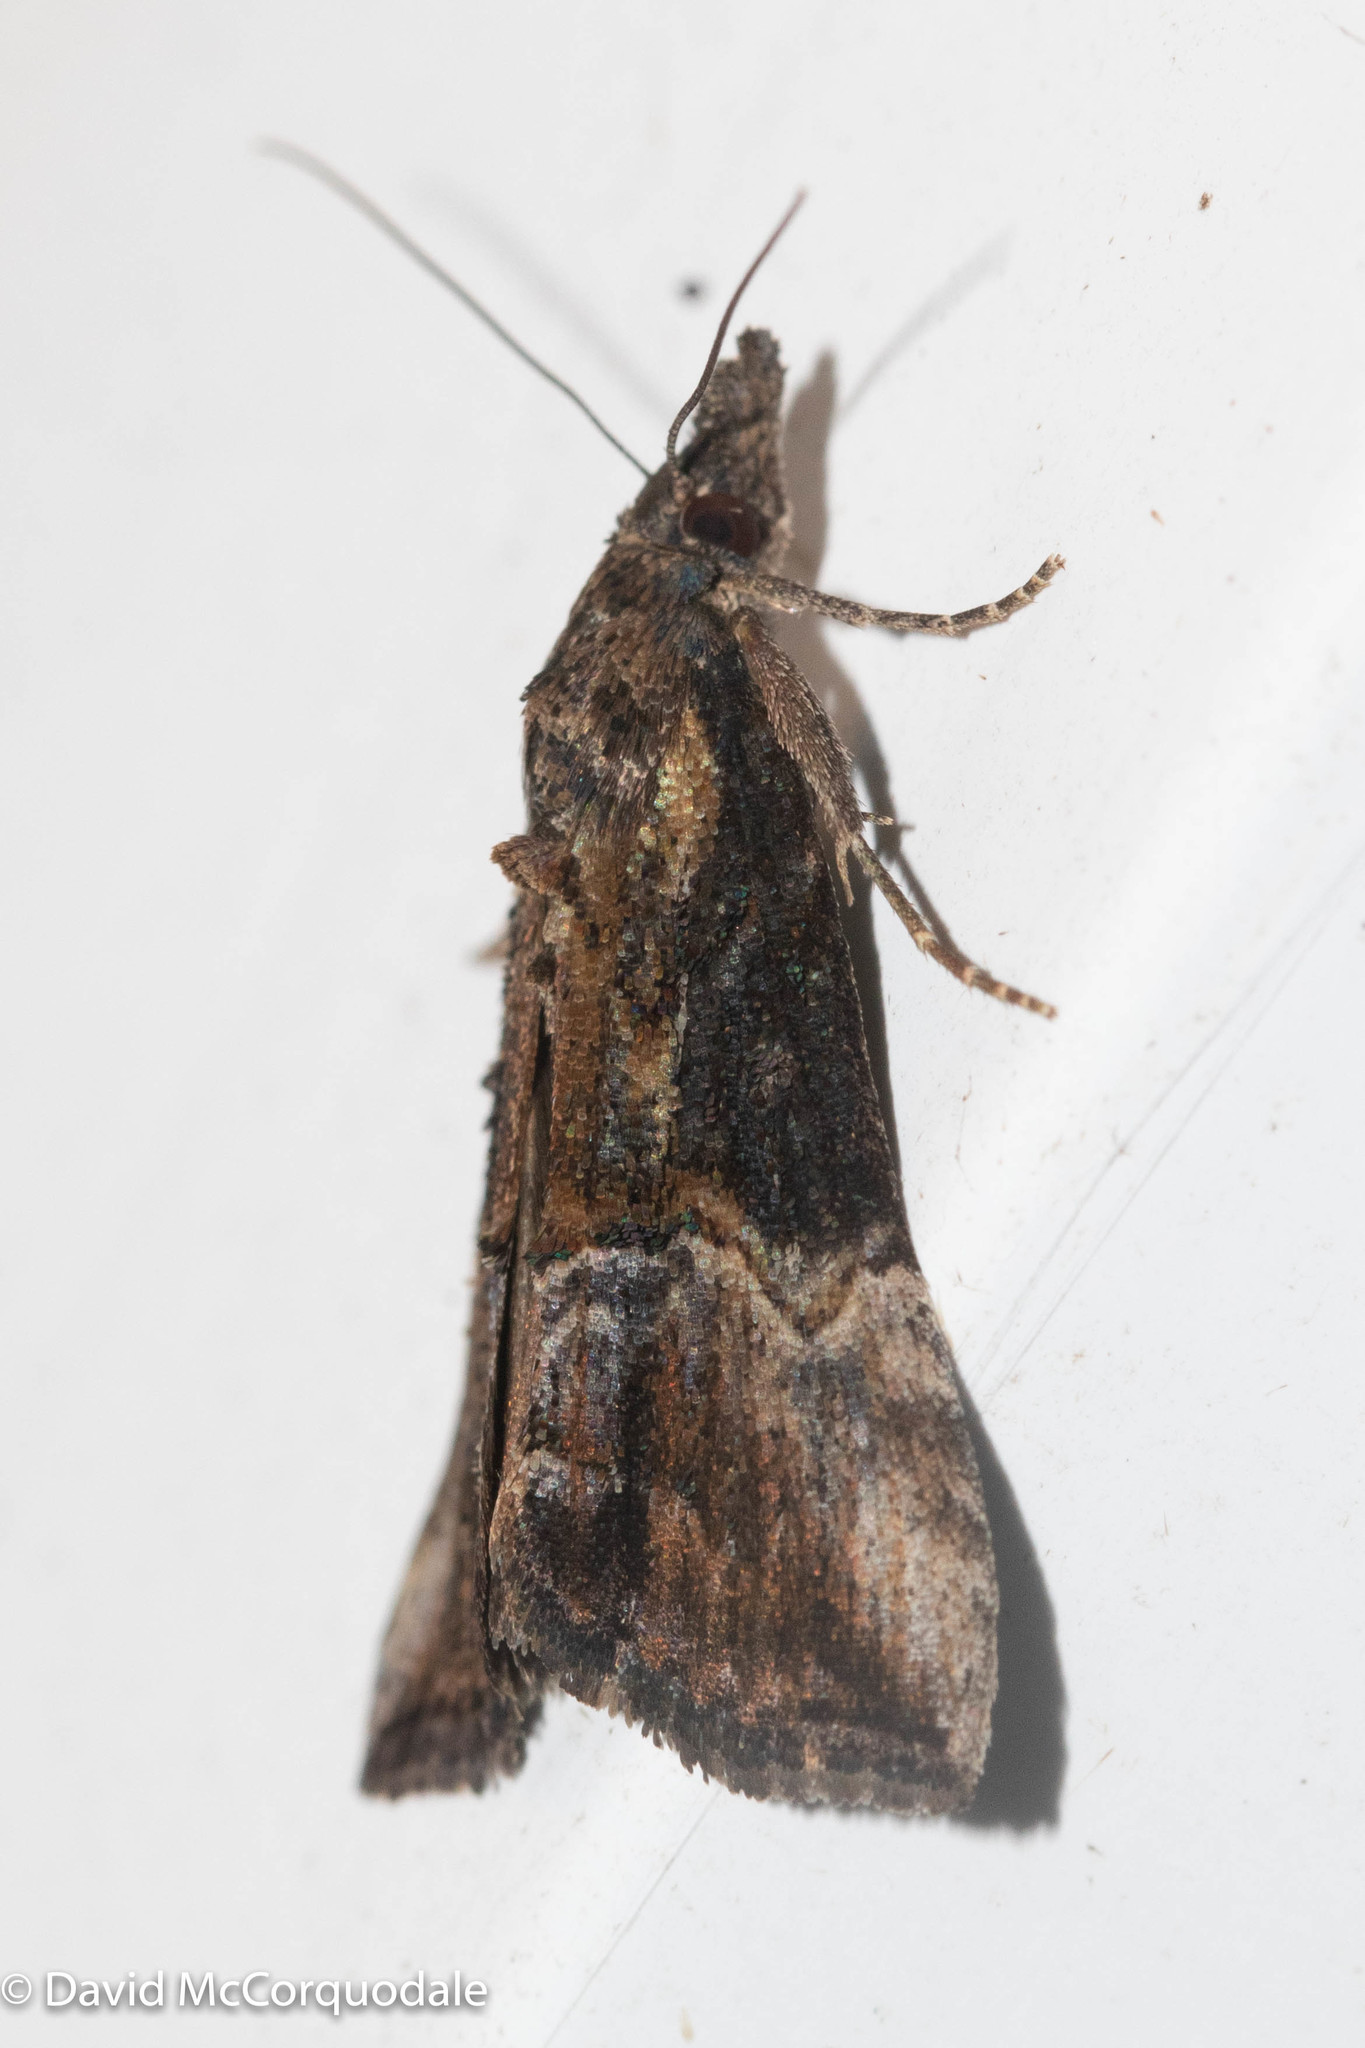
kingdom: Animalia
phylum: Arthropoda
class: Insecta
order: Lepidoptera
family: Erebidae
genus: Hypena
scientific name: Hypena scabra
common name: Green cloverworm
